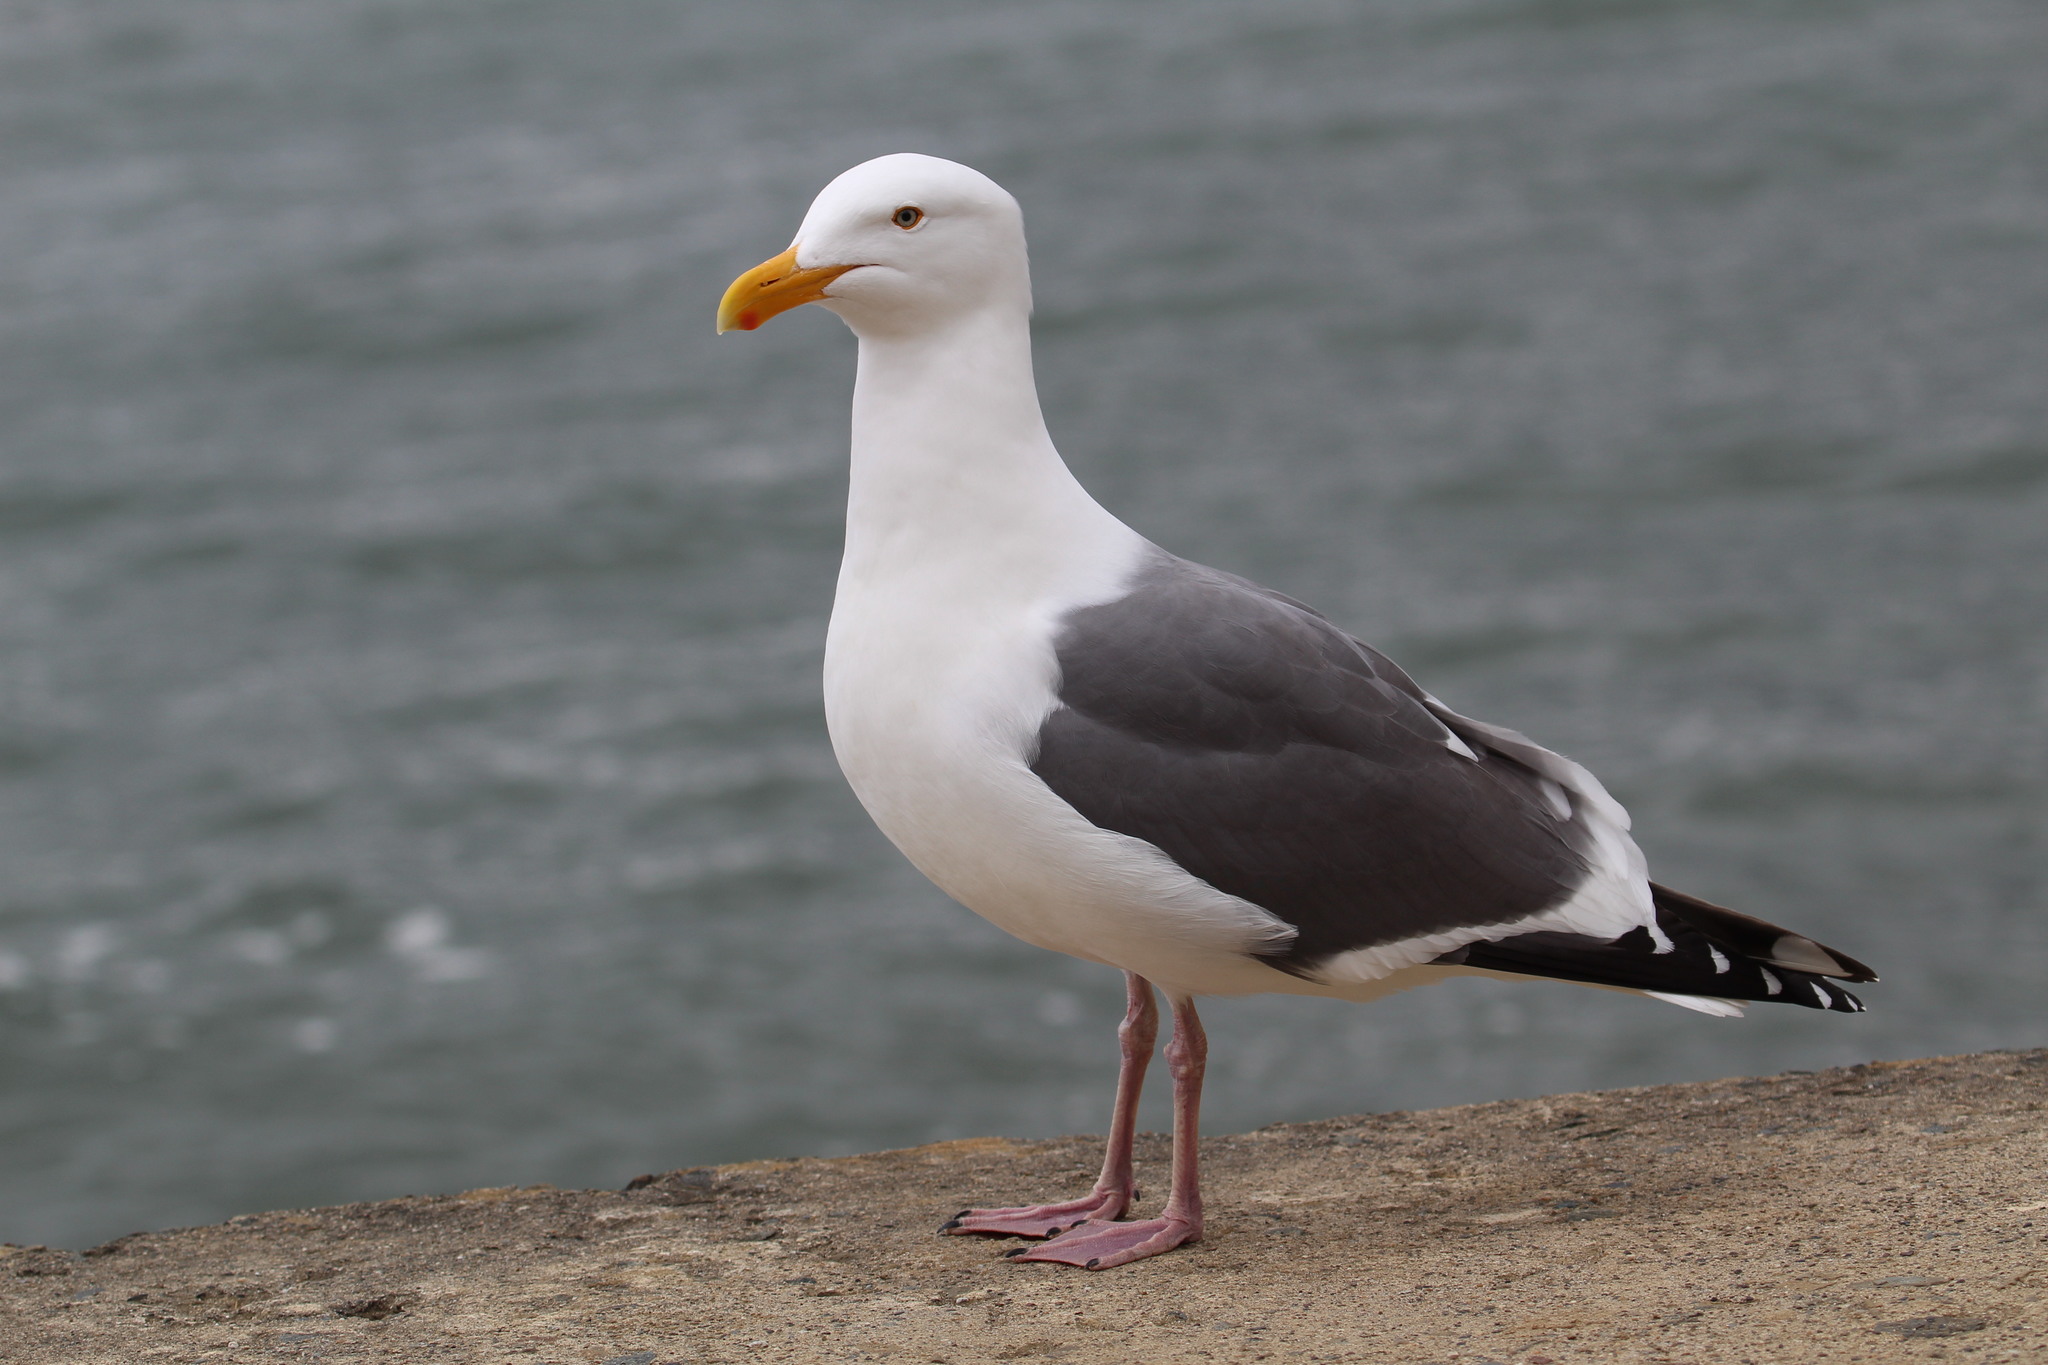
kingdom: Animalia
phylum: Chordata
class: Aves
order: Charadriiformes
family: Laridae
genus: Larus
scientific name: Larus occidentalis
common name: Western gull
